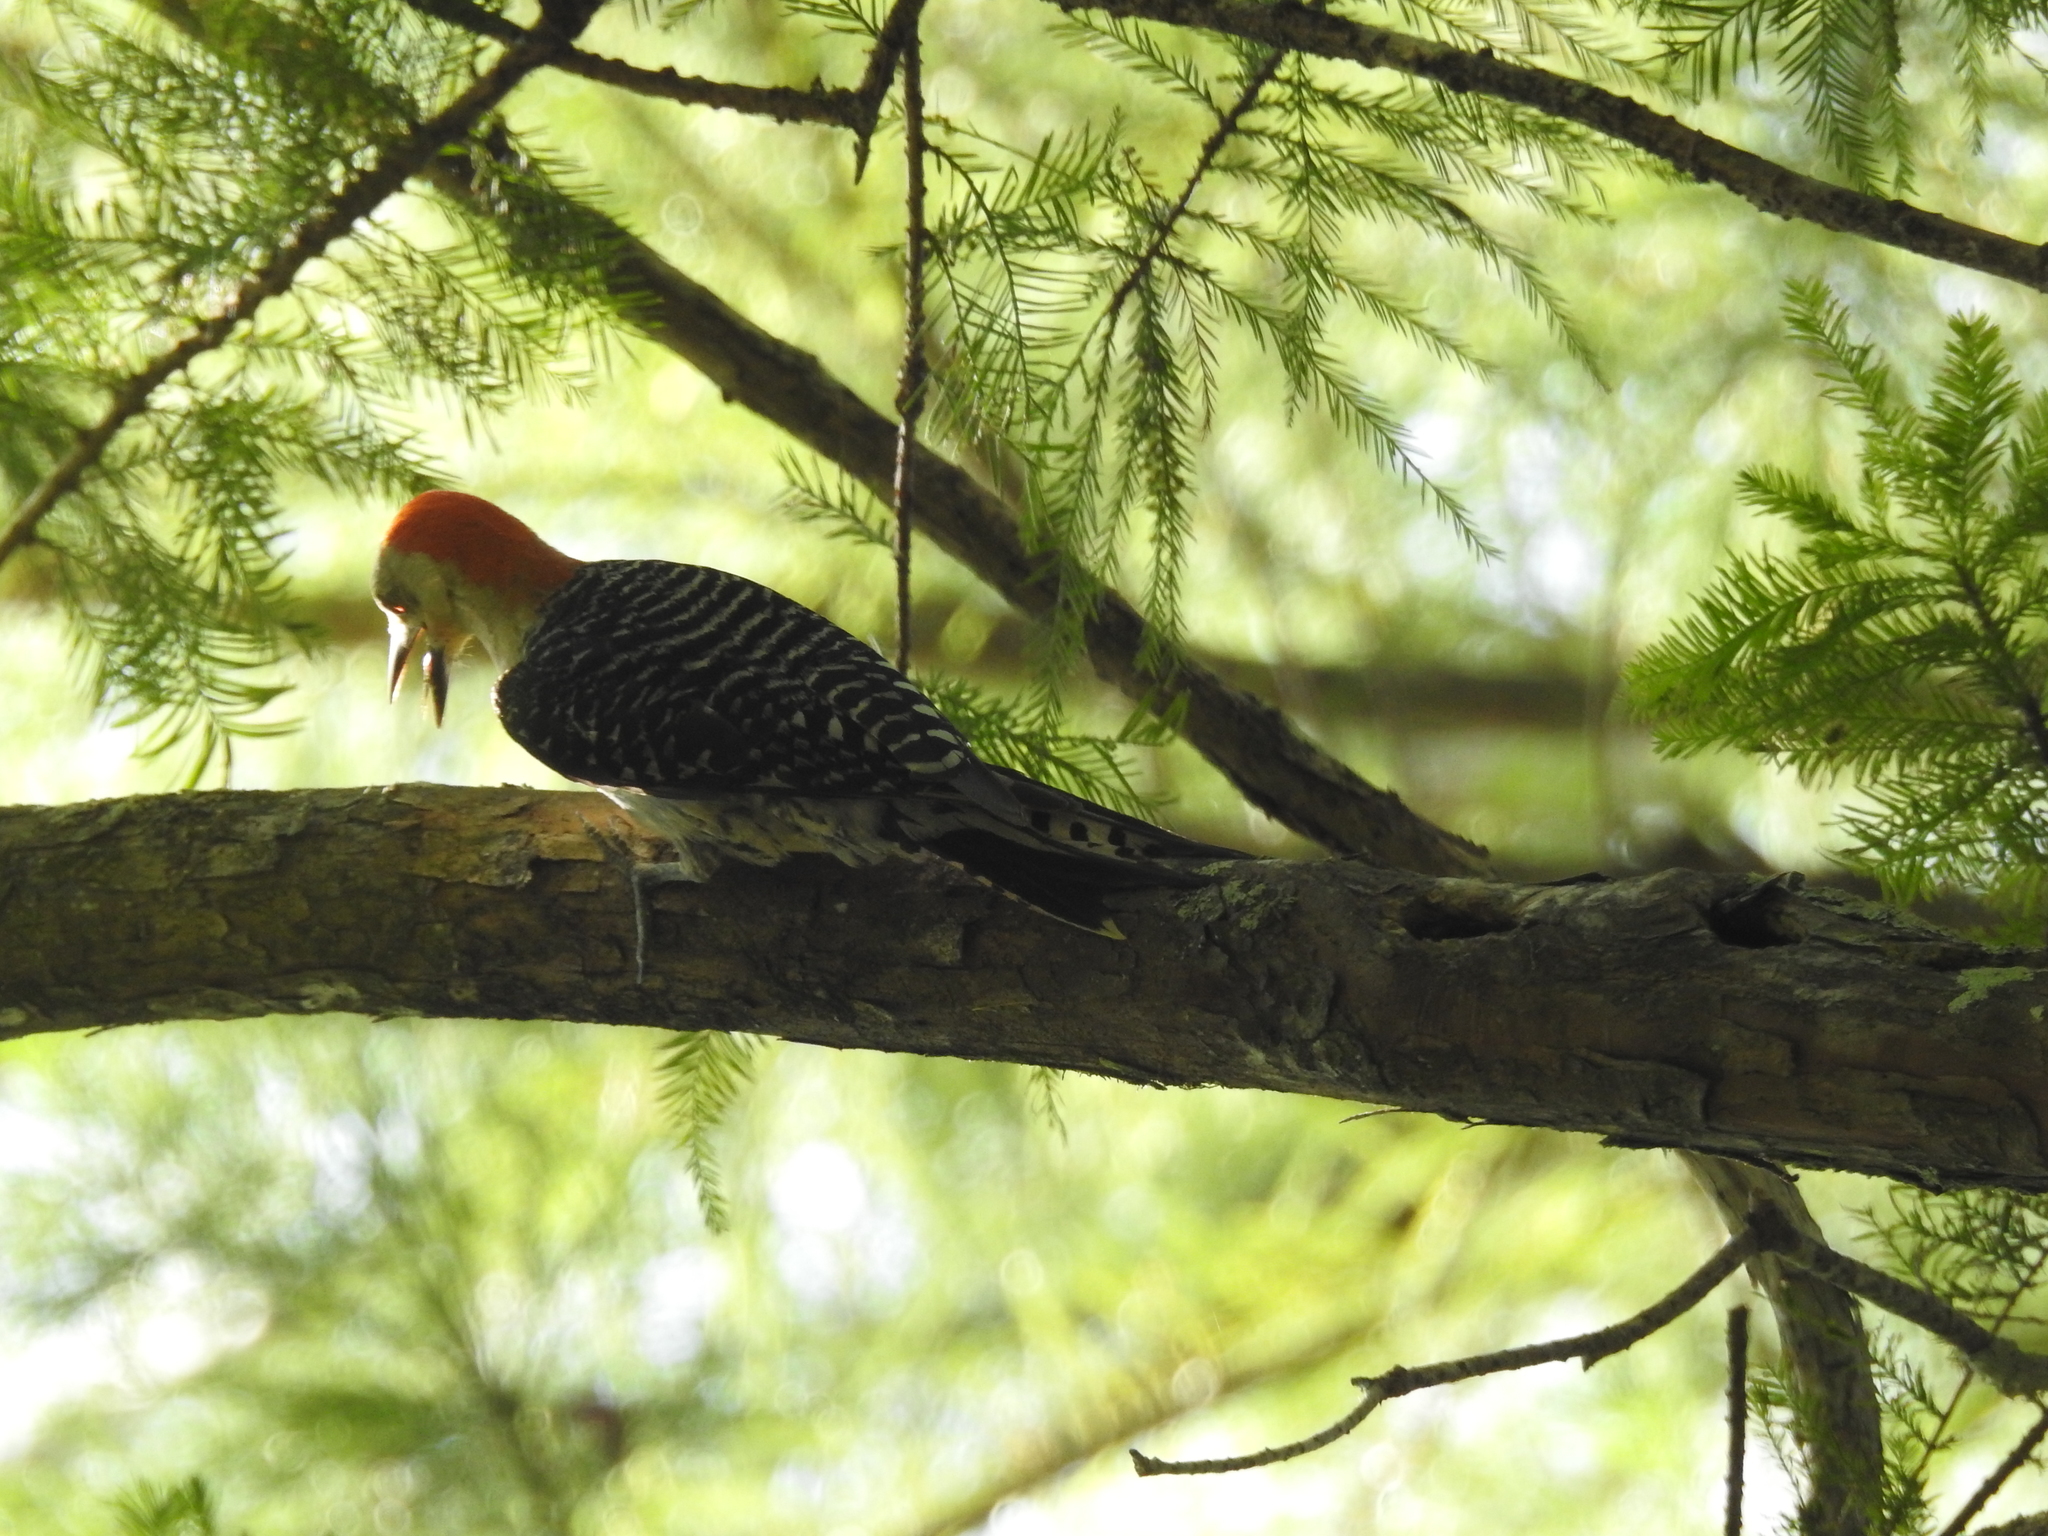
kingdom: Animalia
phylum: Chordata
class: Aves
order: Piciformes
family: Picidae
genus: Melanerpes
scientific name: Melanerpes carolinus
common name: Red-bellied woodpecker
